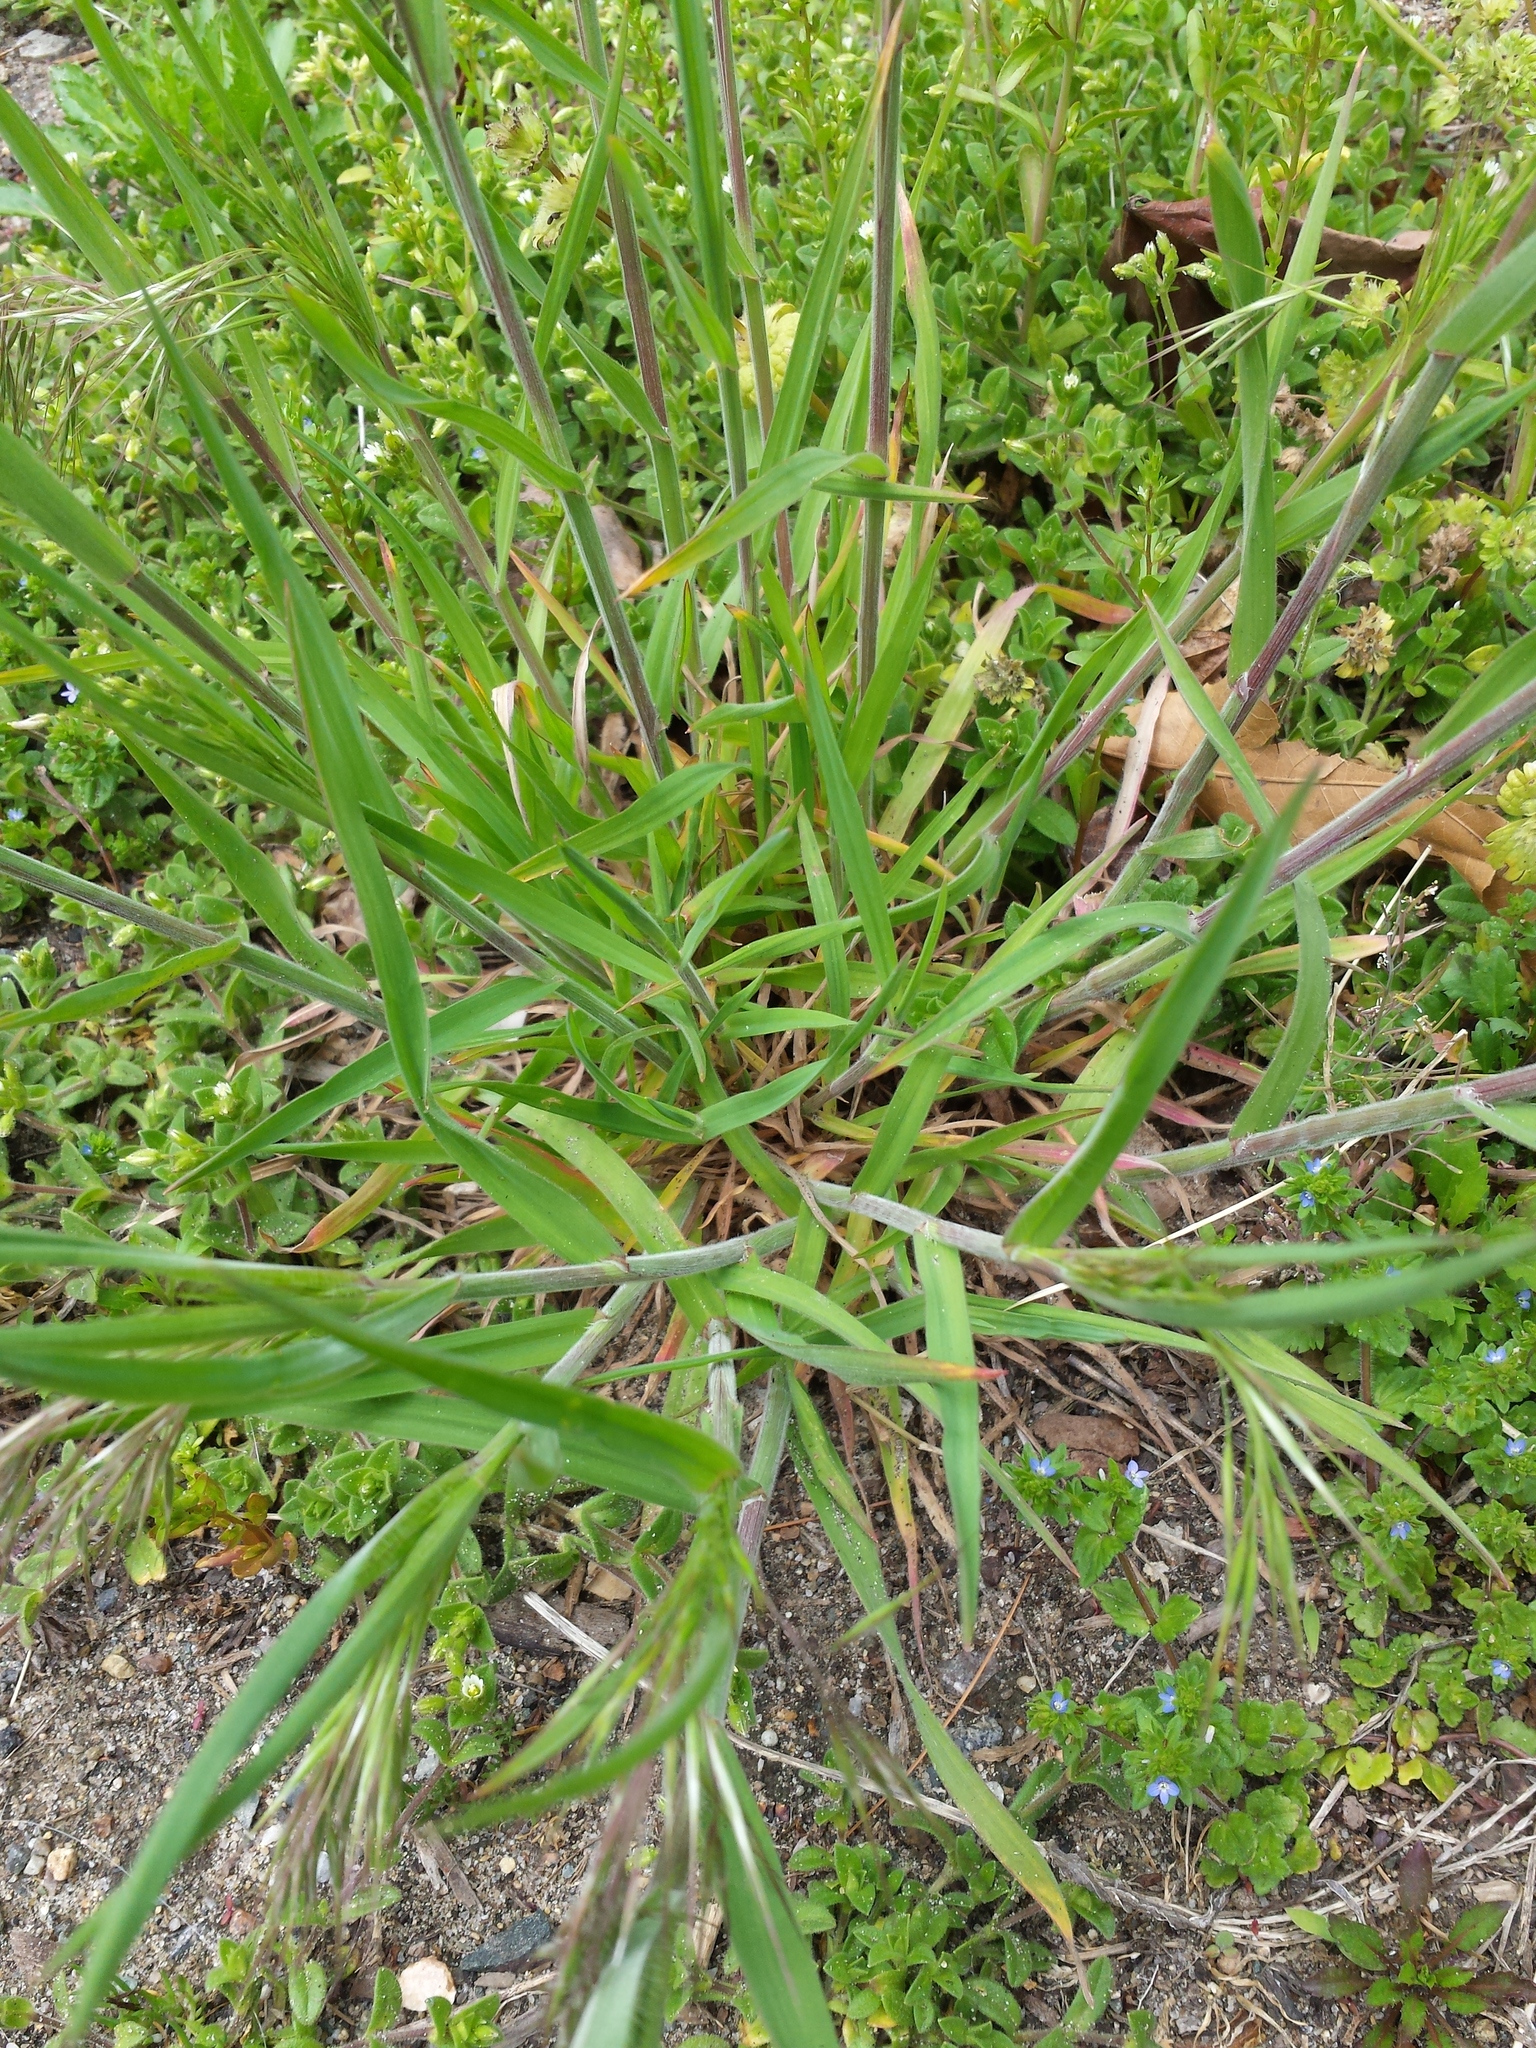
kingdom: Plantae
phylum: Tracheophyta
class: Liliopsida
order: Poales
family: Poaceae
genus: Bromus
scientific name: Bromus tectorum
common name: Cheatgrass
